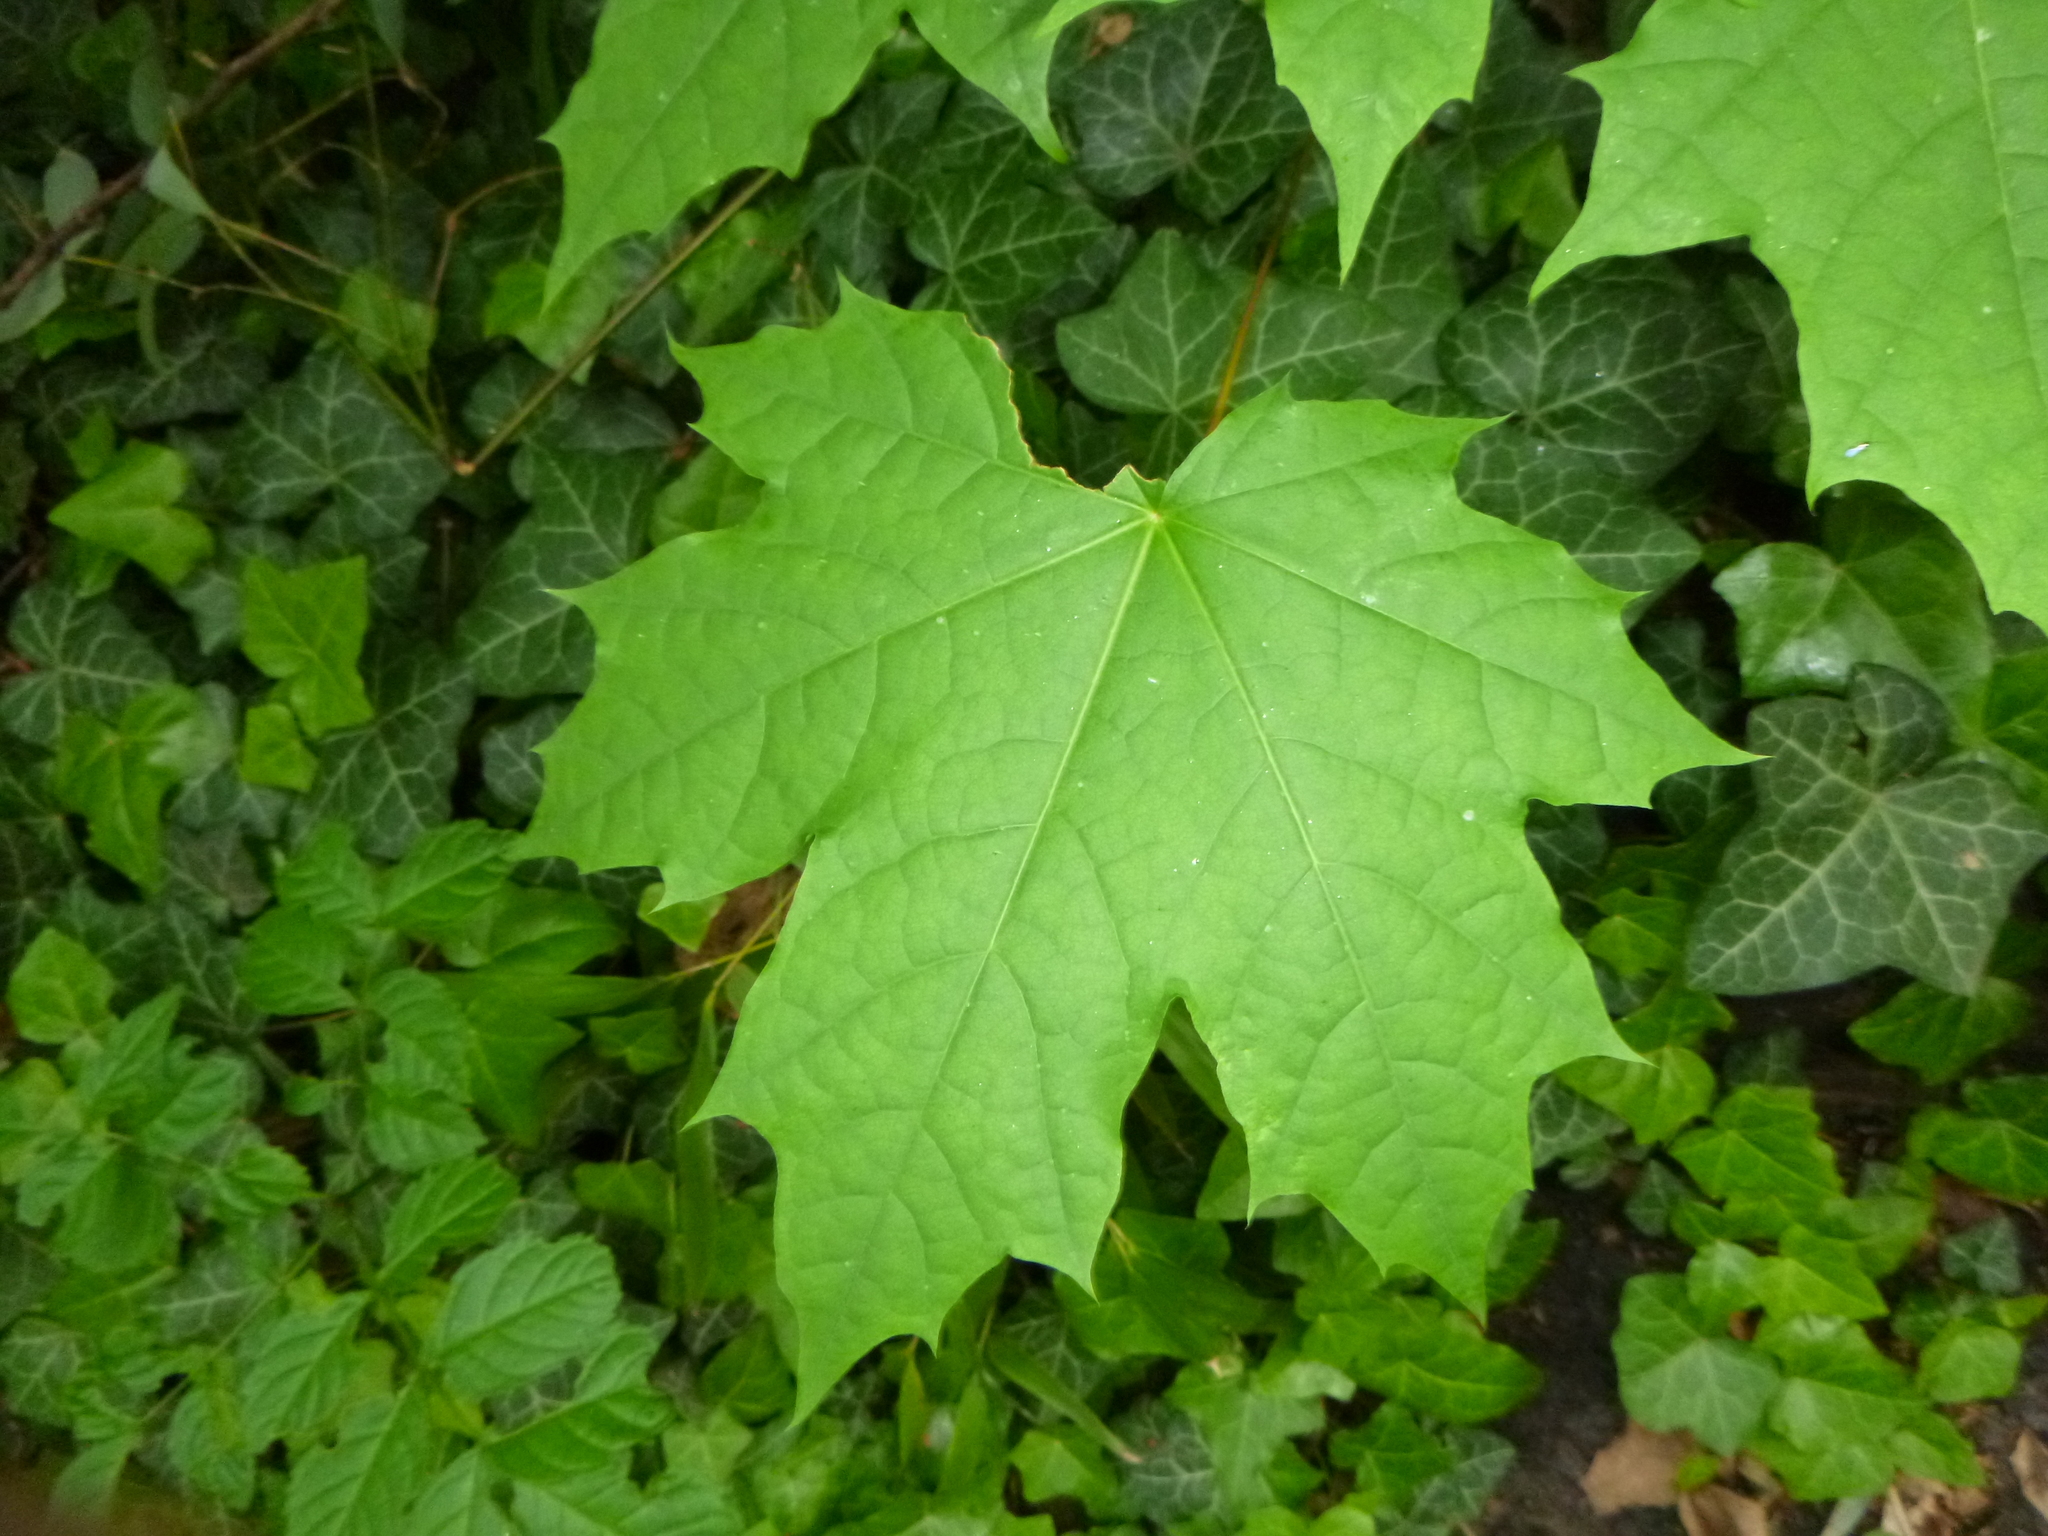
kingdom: Plantae
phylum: Tracheophyta
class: Magnoliopsida
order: Sapindales
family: Sapindaceae
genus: Acer
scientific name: Acer platanoides
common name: Norway maple
